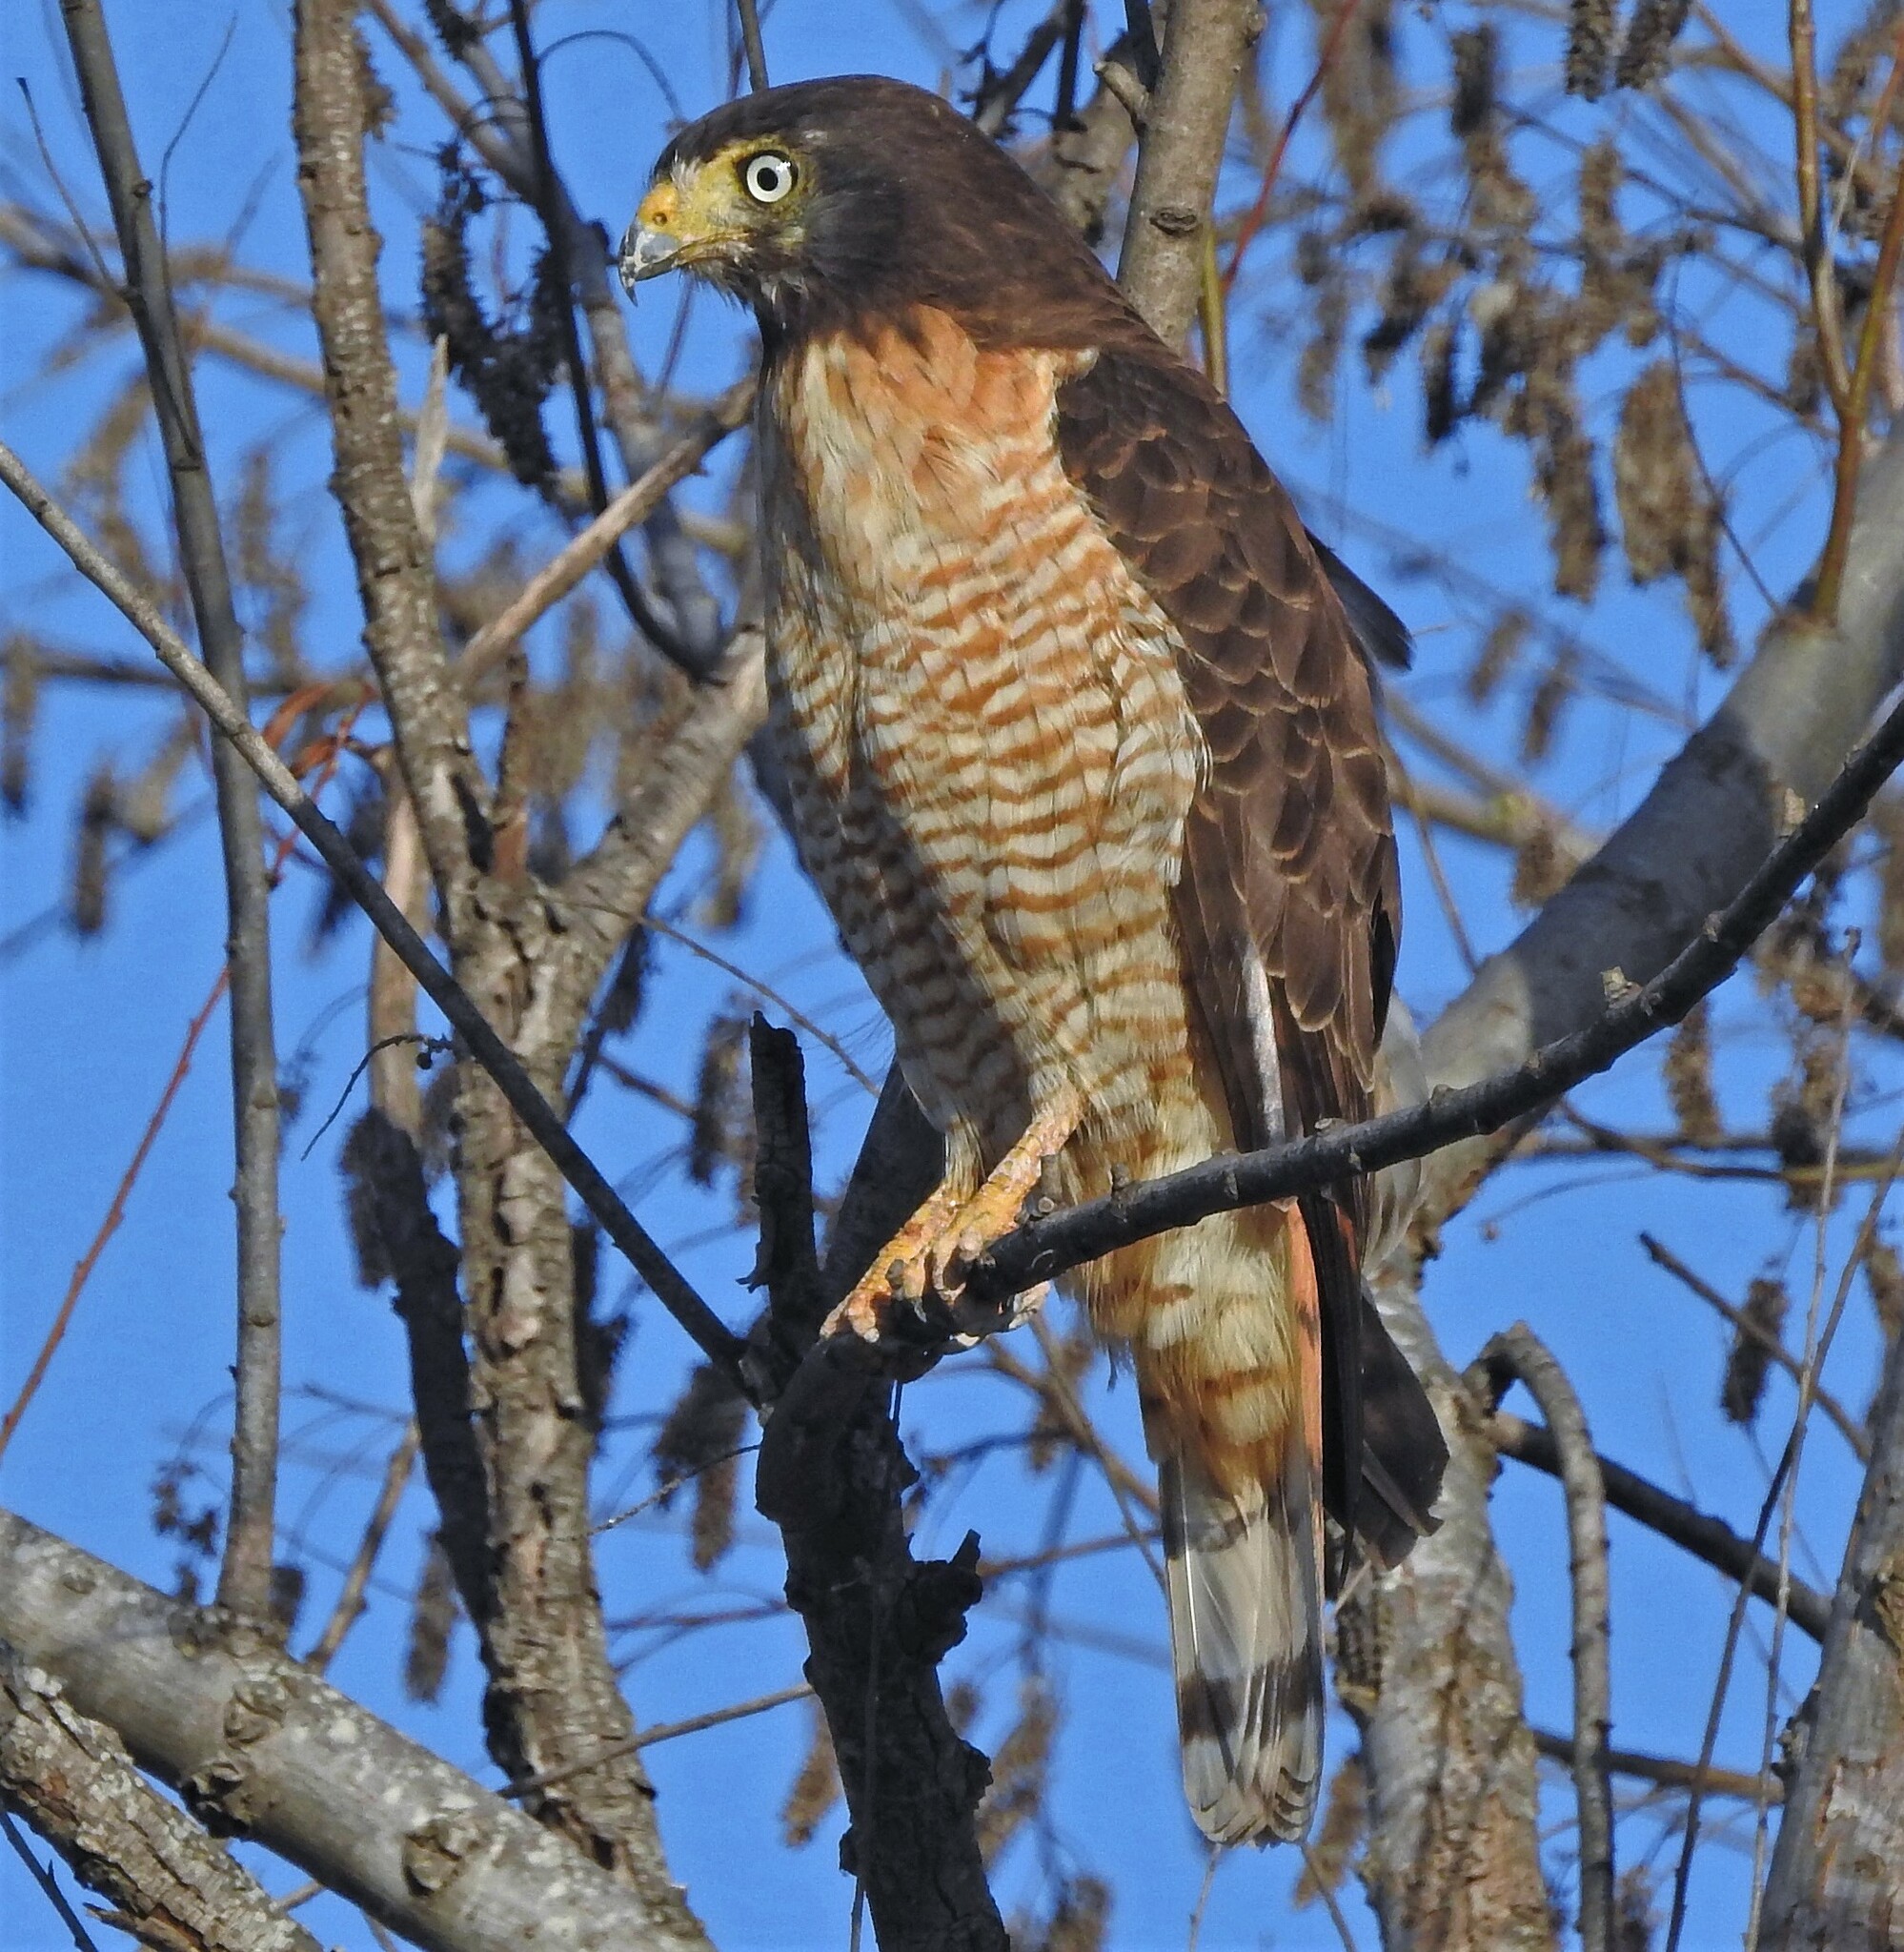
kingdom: Animalia
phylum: Chordata
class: Aves
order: Accipitriformes
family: Accipitridae
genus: Rupornis
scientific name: Rupornis magnirostris
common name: Roadside hawk
